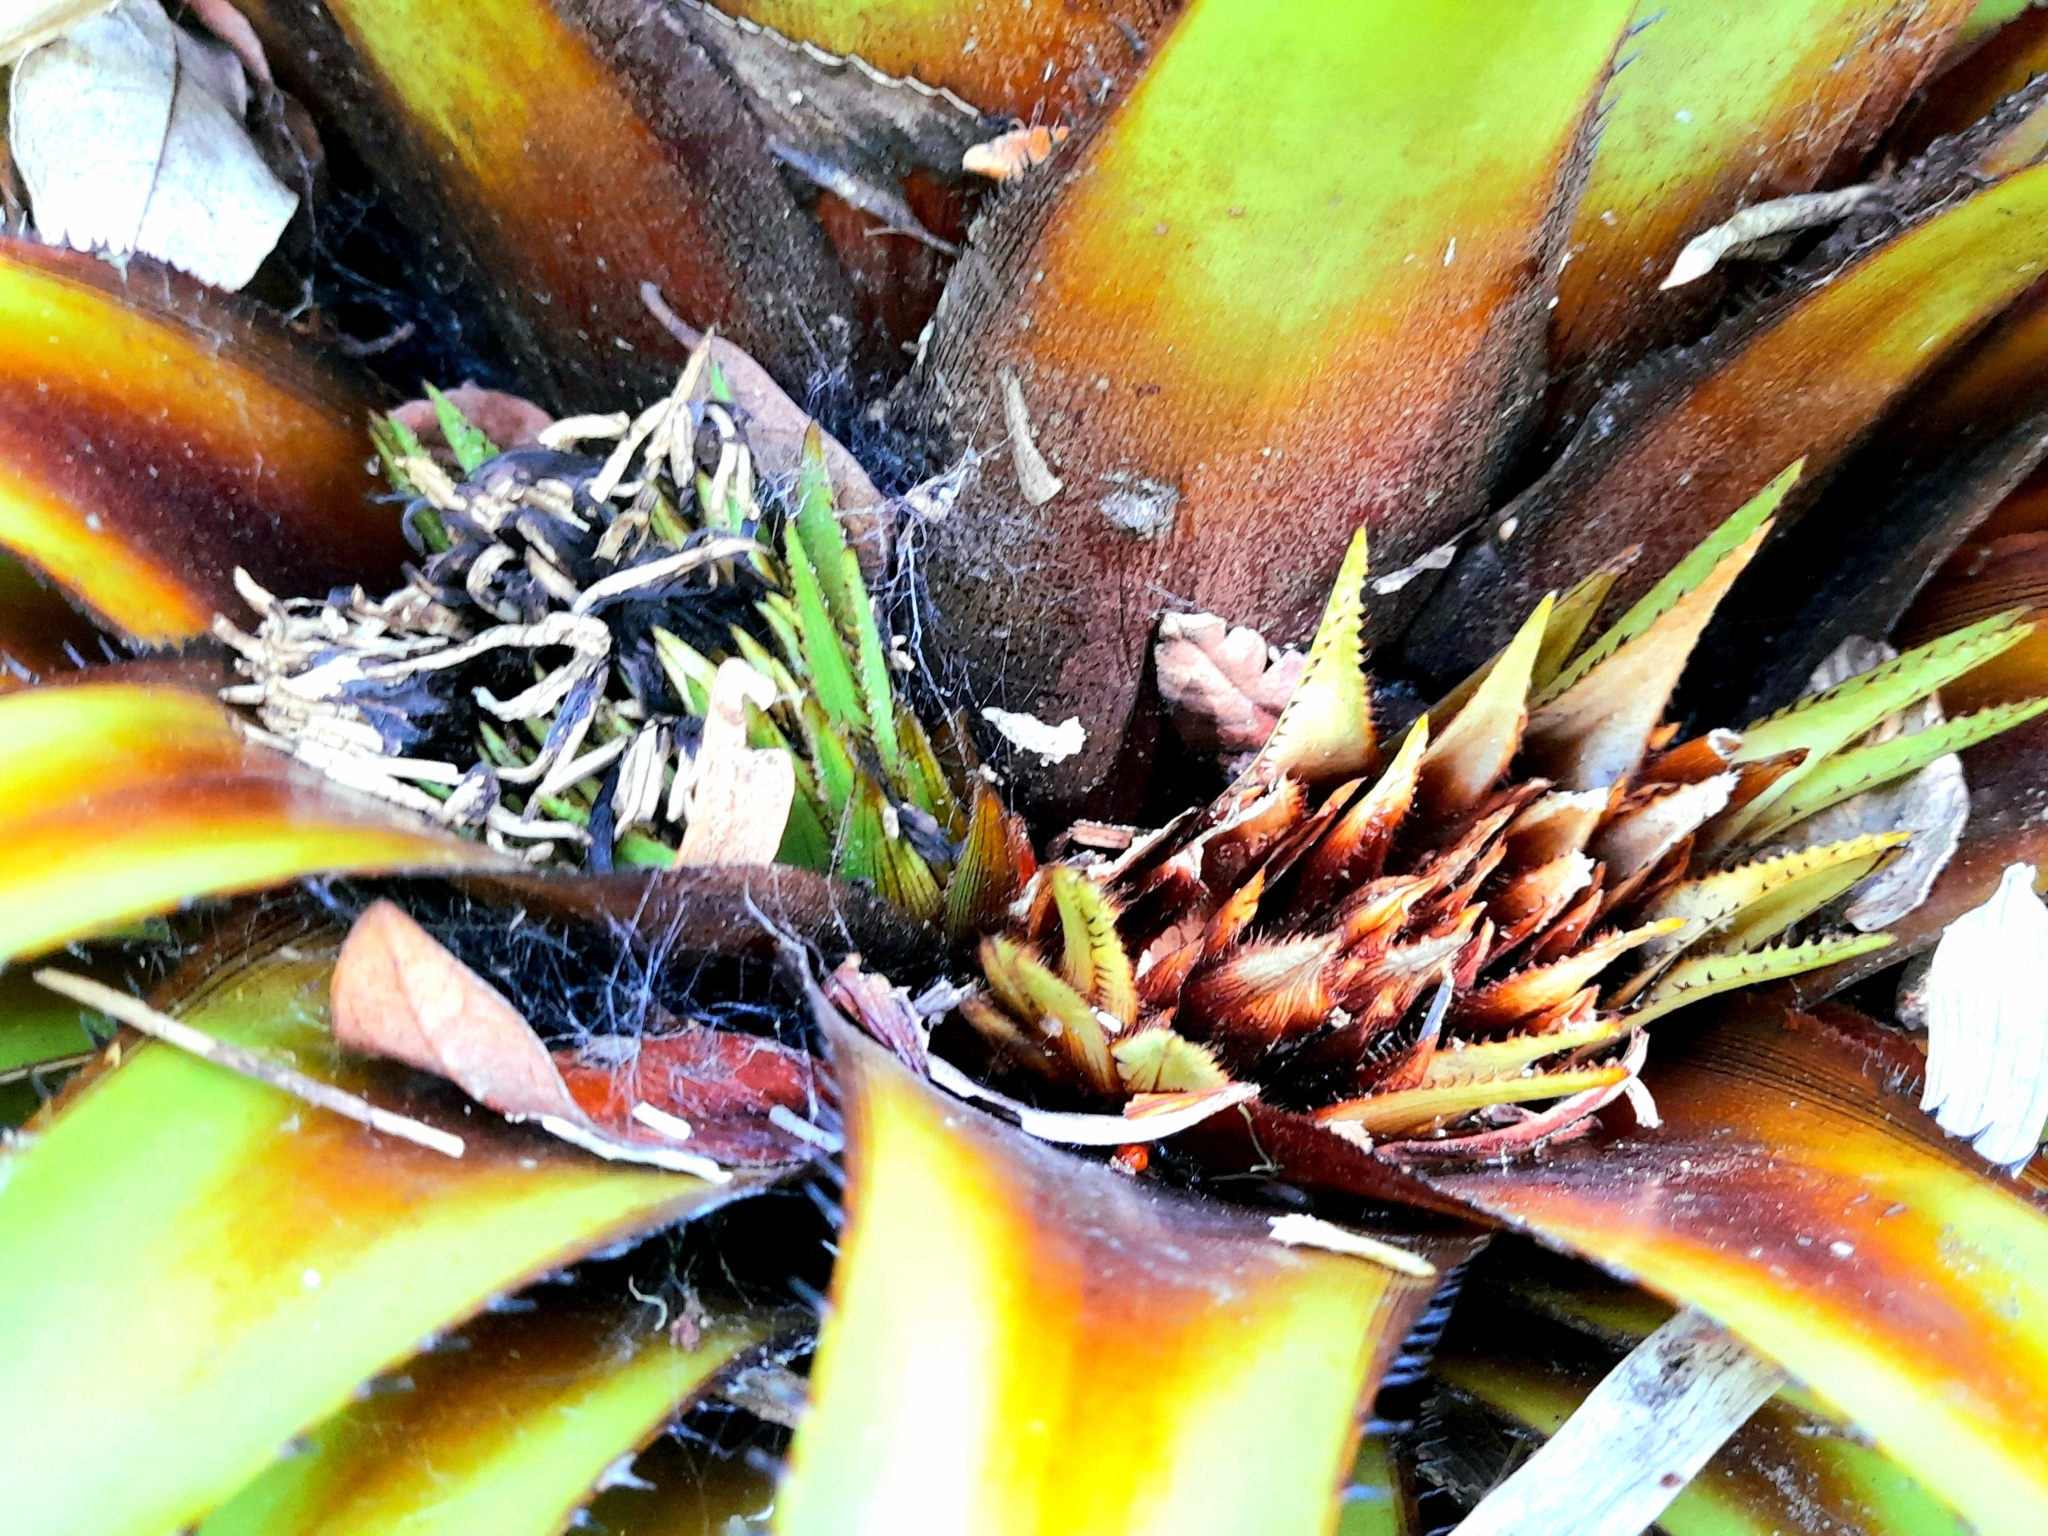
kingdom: Plantae
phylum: Tracheophyta
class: Liliopsida
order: Poales
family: Bromeliaceae
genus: Greigia
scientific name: Greigia sphacelata
